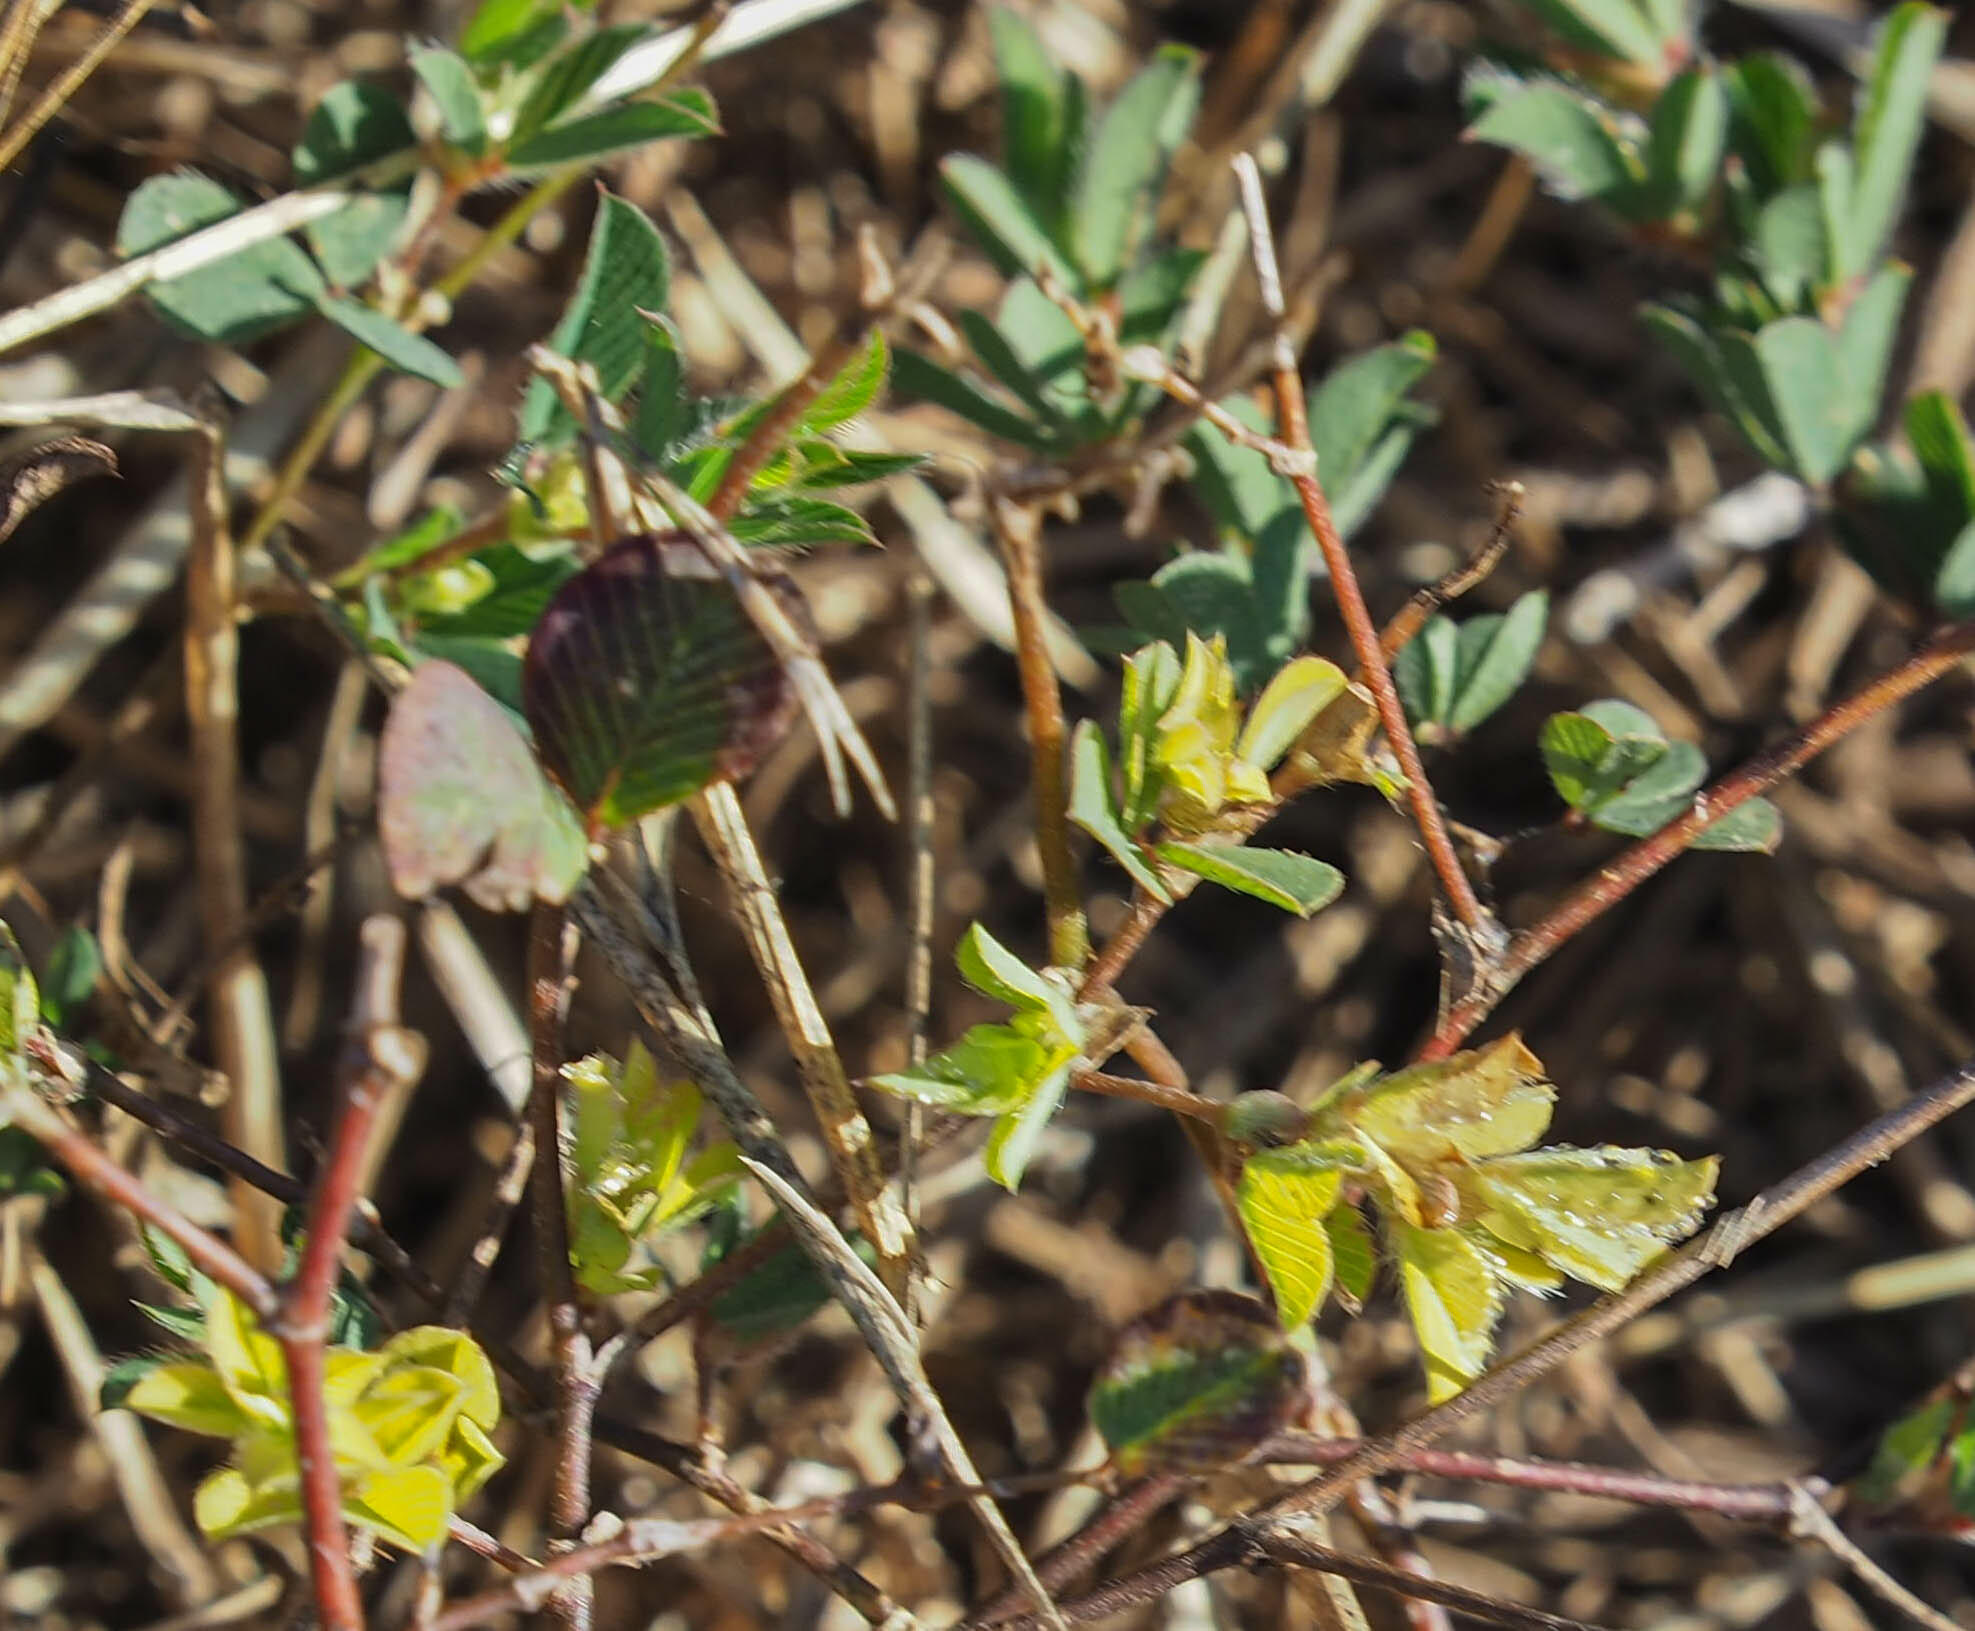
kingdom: Plantae
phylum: Tracheophyta
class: Magnoliopsida
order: Fabales
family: Fabaceae
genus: Kummerowia
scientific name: Kummerowia stipulacea
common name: Korean clover
